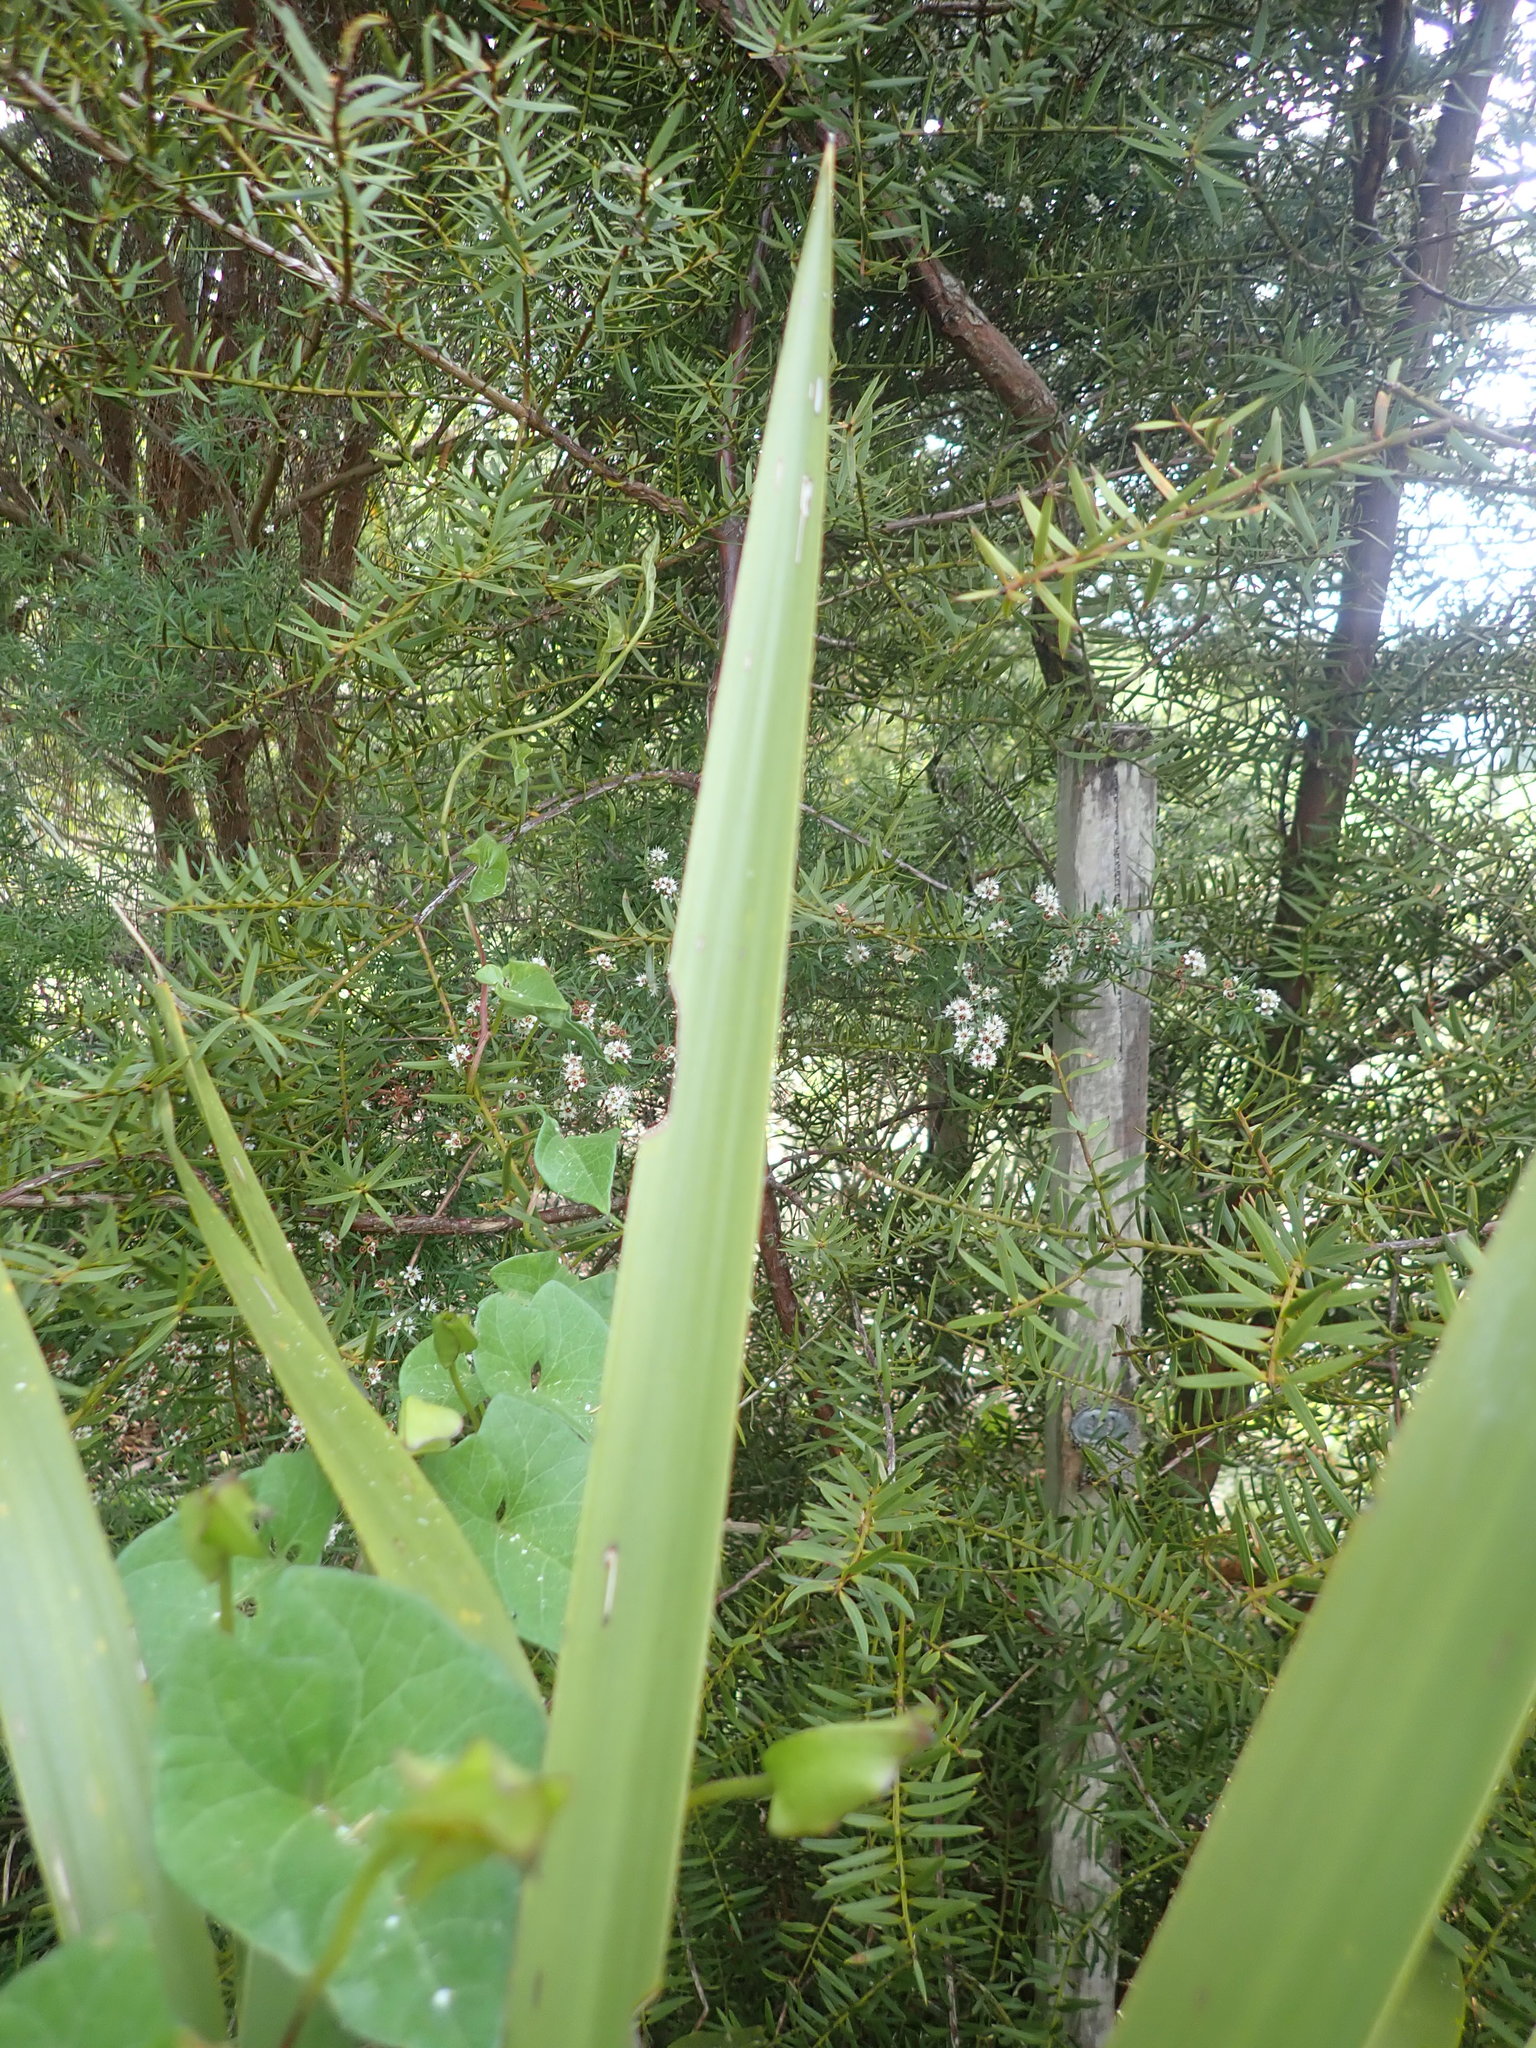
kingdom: Plantae
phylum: Tracheophyta
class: Pinopsida
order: Pinales
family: Podocarpaceae
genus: Podocarpus
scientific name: Podocarpus totara
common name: Totara
